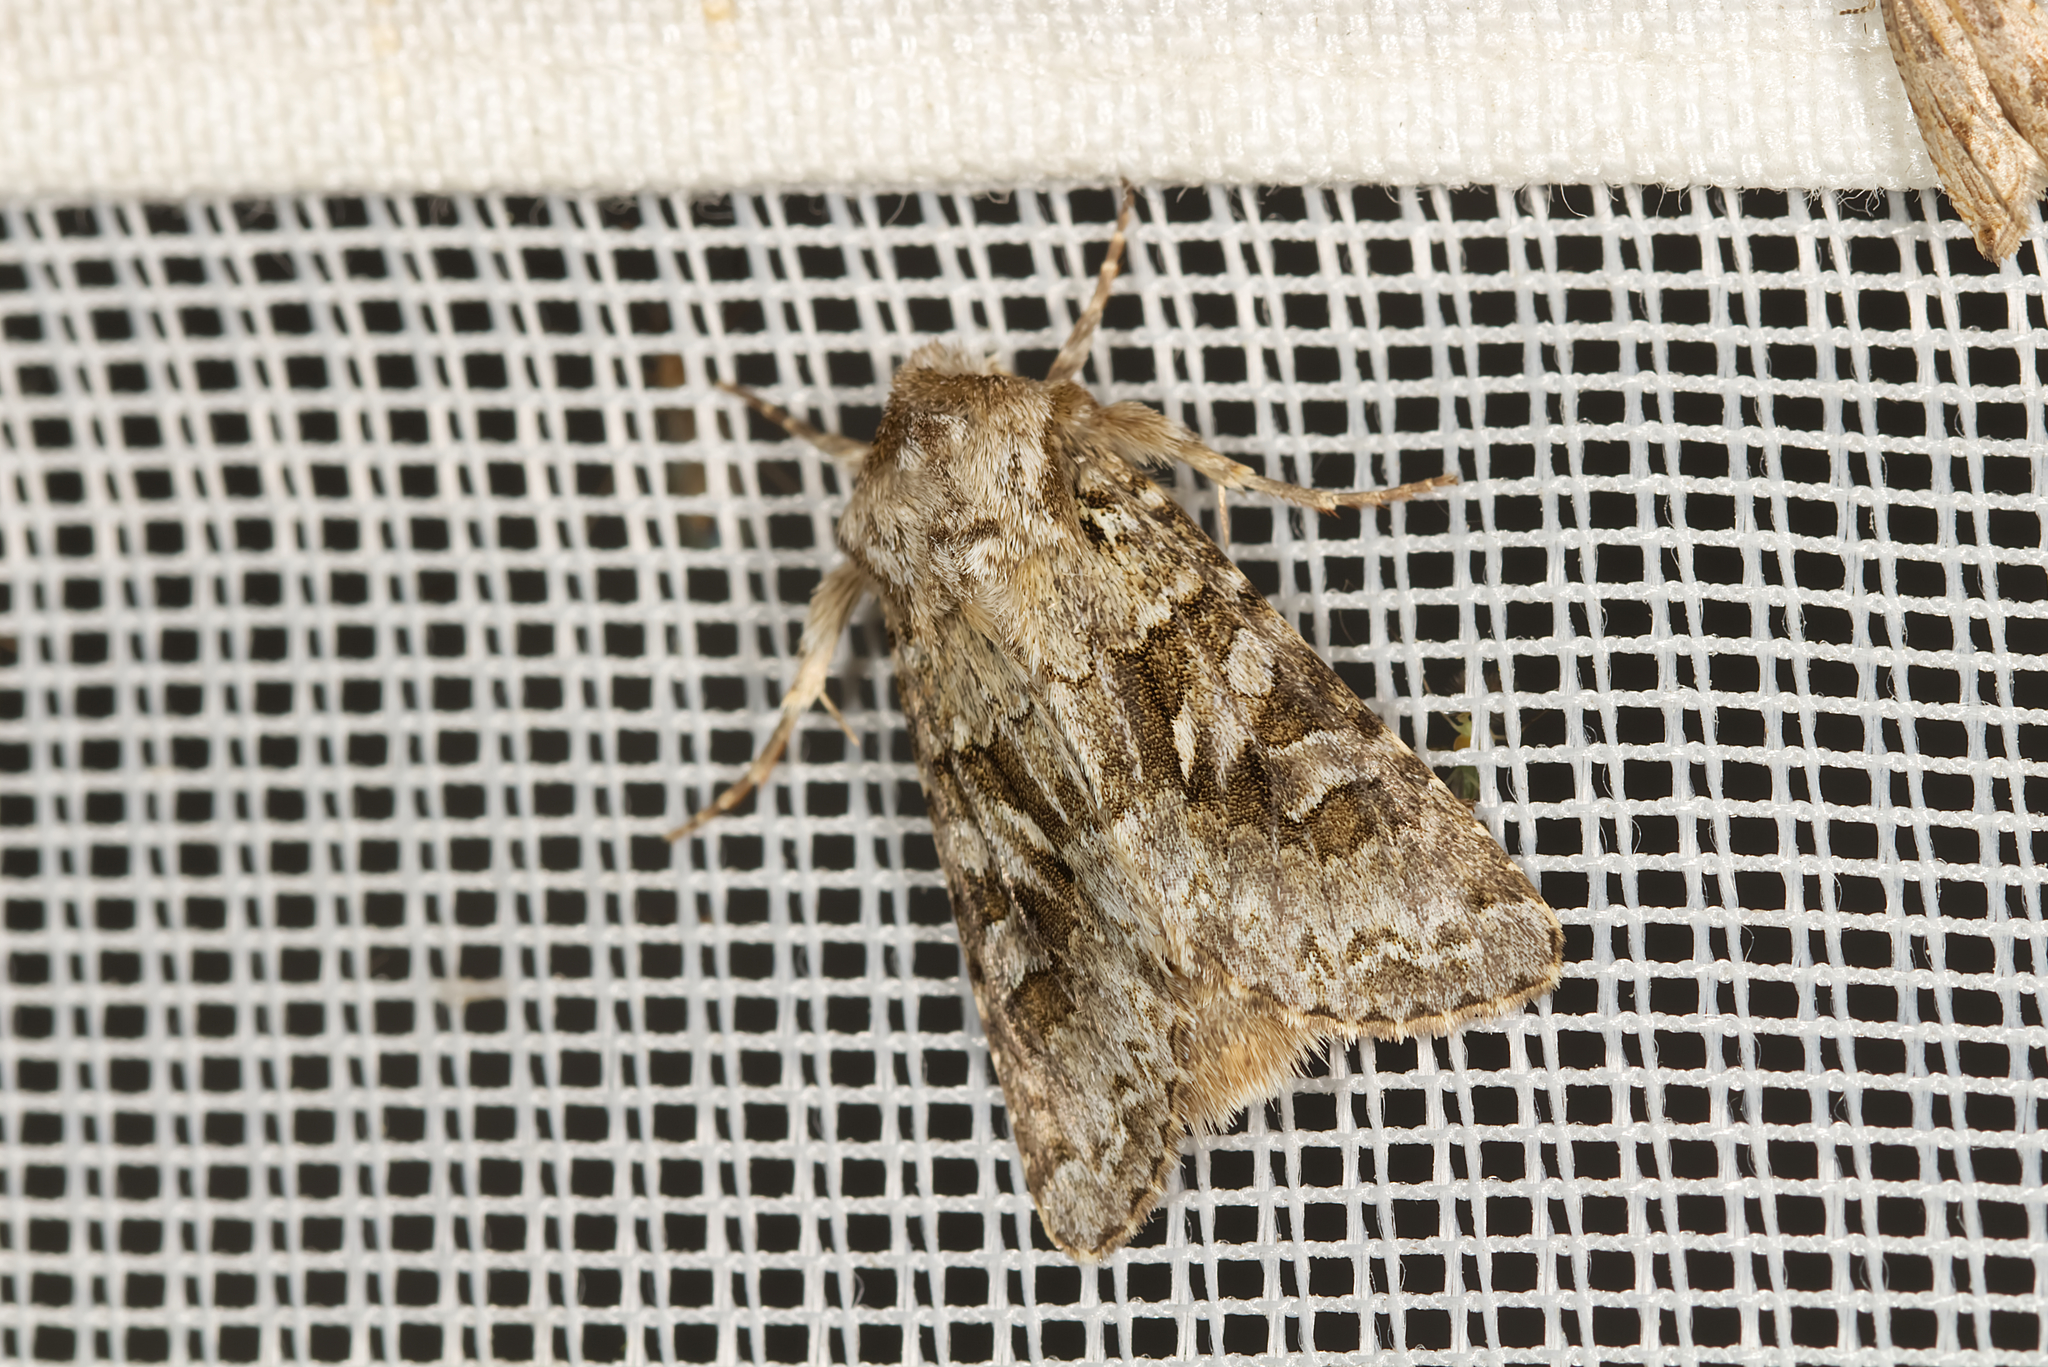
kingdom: Animalia
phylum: Arthropoda
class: Insecta
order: Lepidoptera
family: Noctuidae
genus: Hada
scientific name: Hada plebeja
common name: Shears
